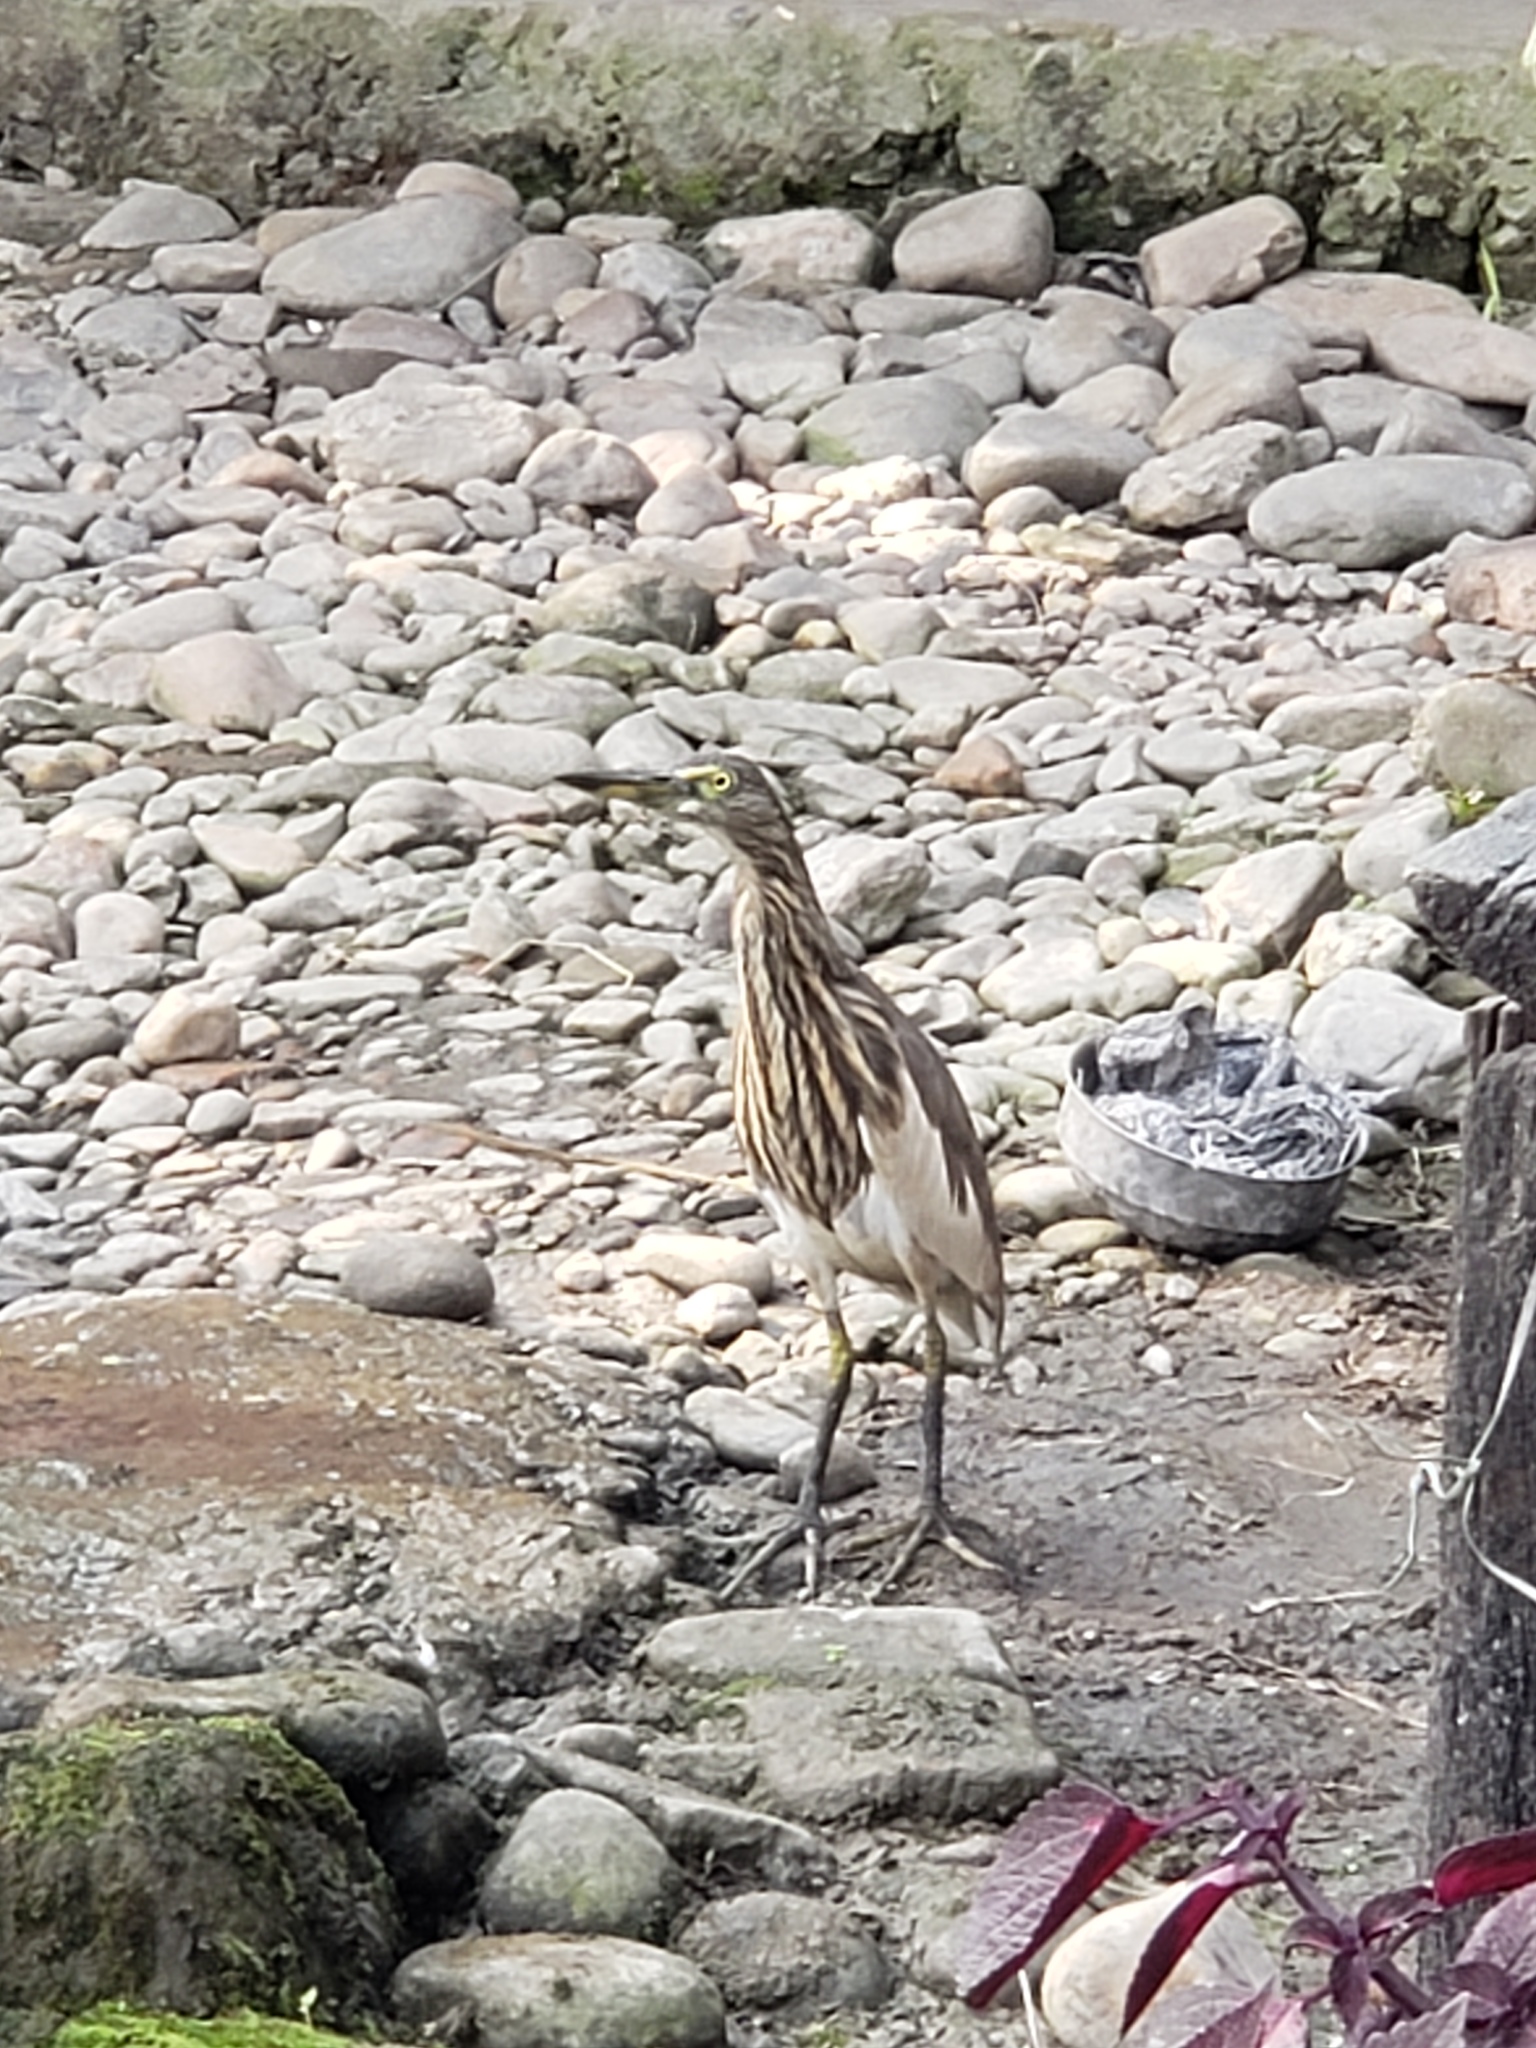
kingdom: Animalia
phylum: Chordata
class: Aves
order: Pelecaniformes
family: Ardeidae
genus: Ardeola
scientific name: Ardeola grayii
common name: Indian pond heron
